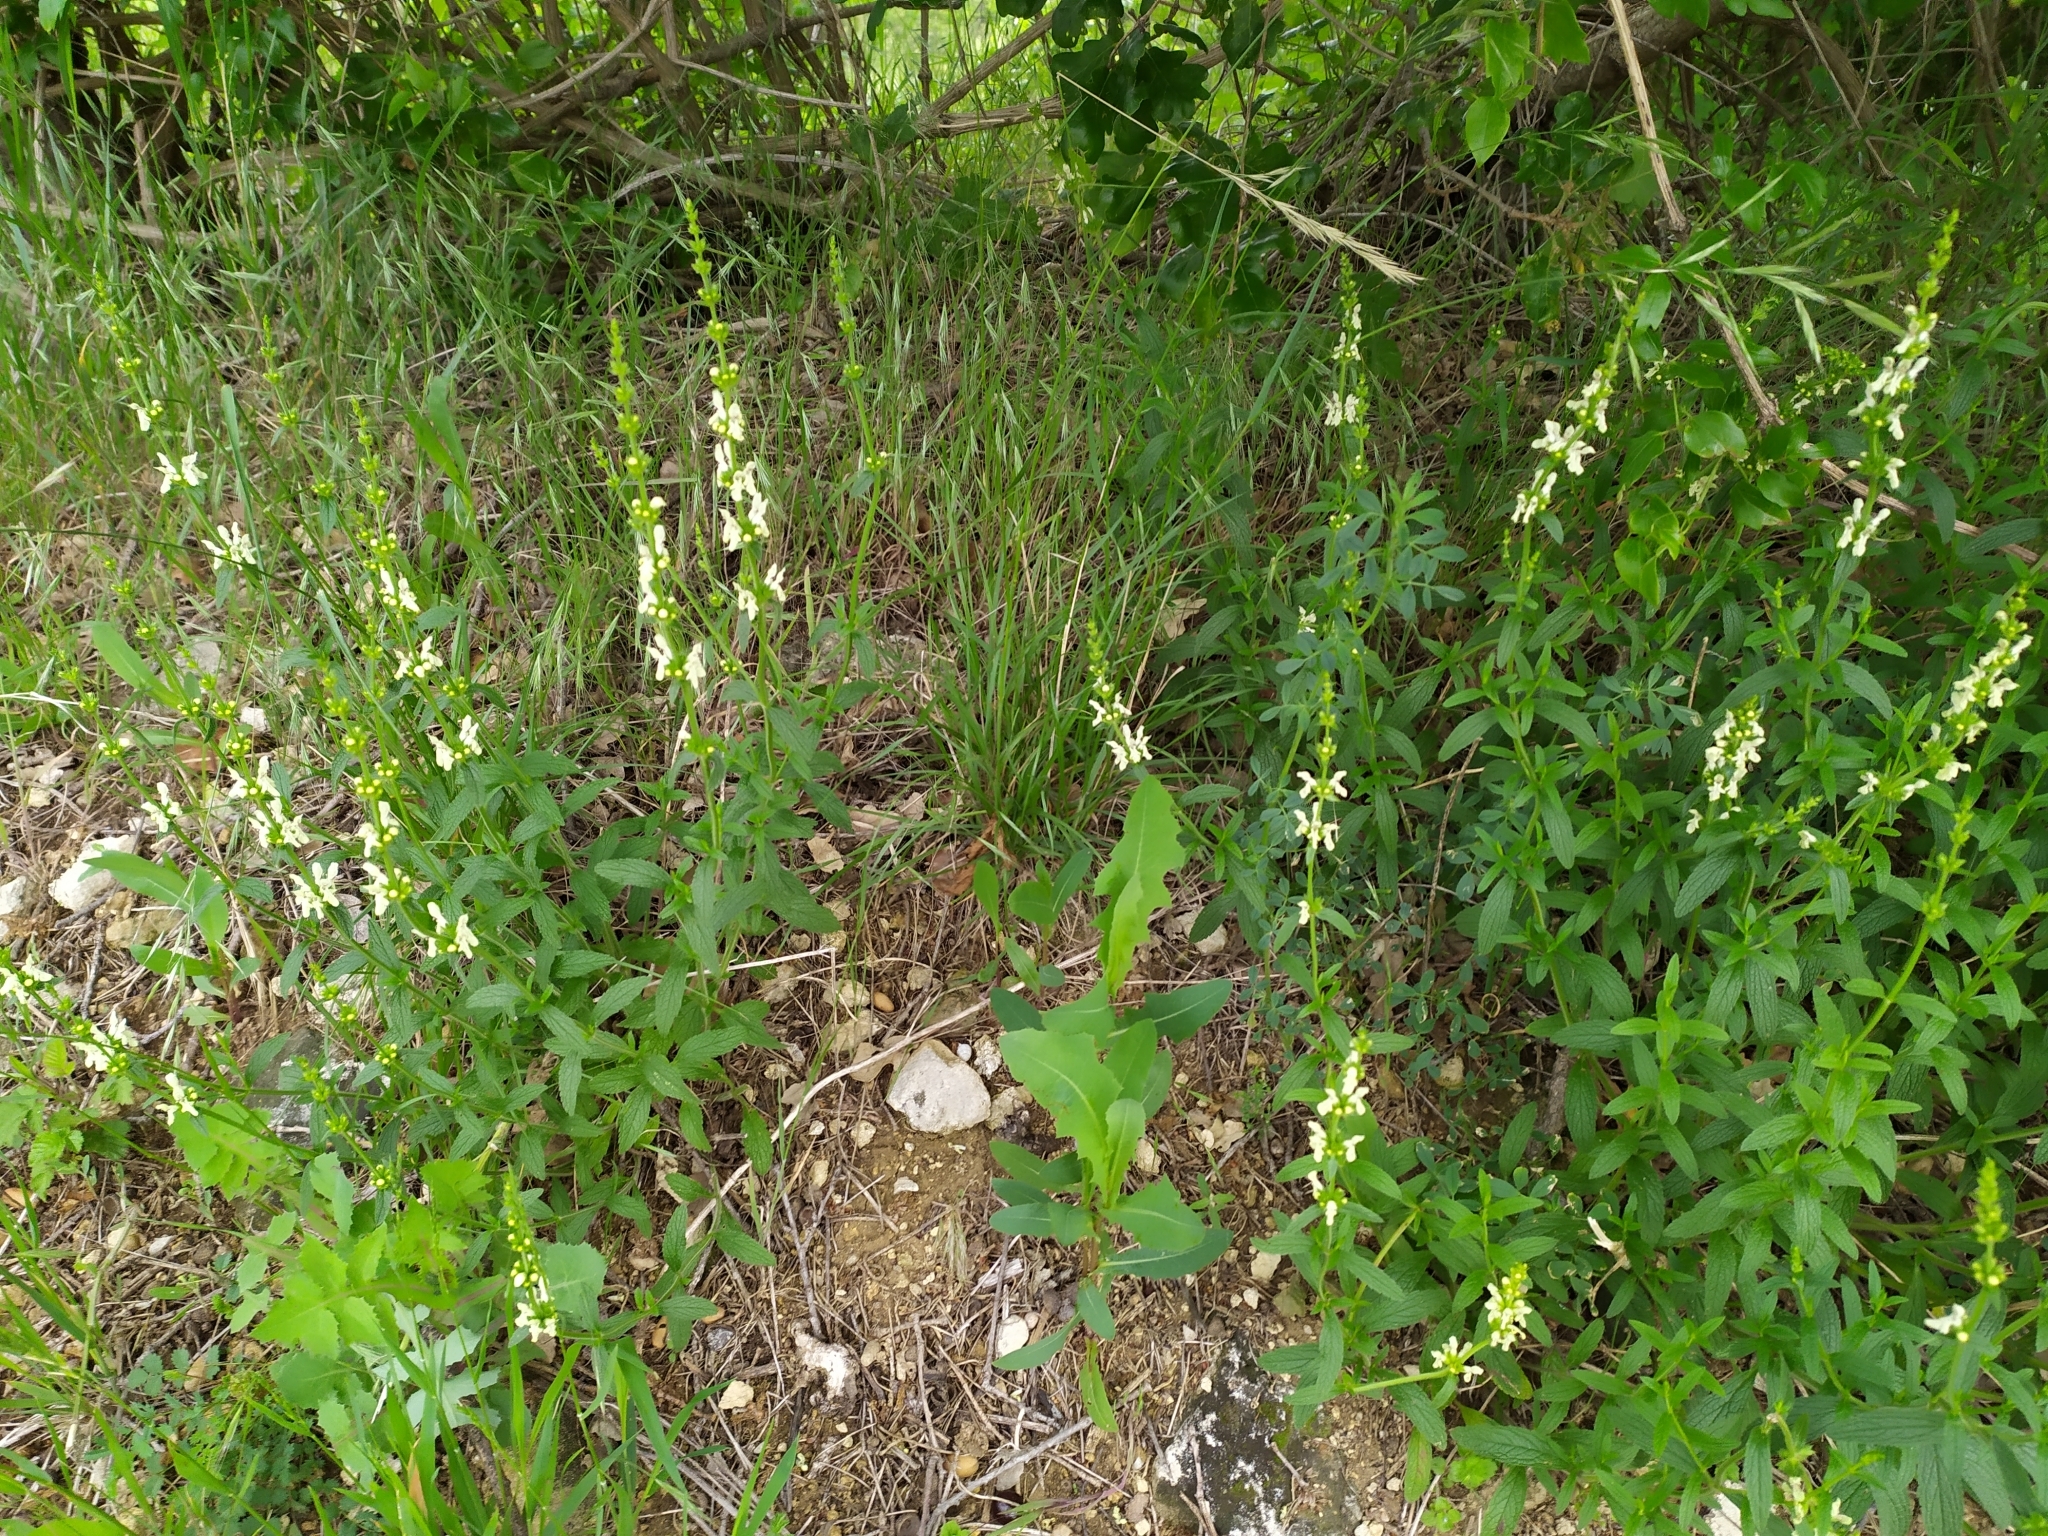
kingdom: Plantae
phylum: Tracheophyta
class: Magnoliopsida
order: Lamiales
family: Lamiaceae
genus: Stachys
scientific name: Stachys recta
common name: Perennial yellow-woundwort
